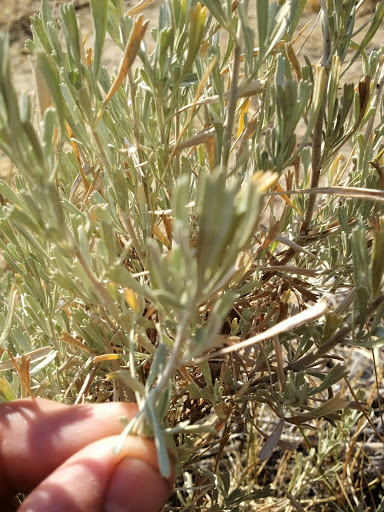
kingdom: Plantae
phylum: Tracheophyta
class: Magnoliopsida
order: Asterales
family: Asteraceae
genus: Artemisia
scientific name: Artemisia tridentata
